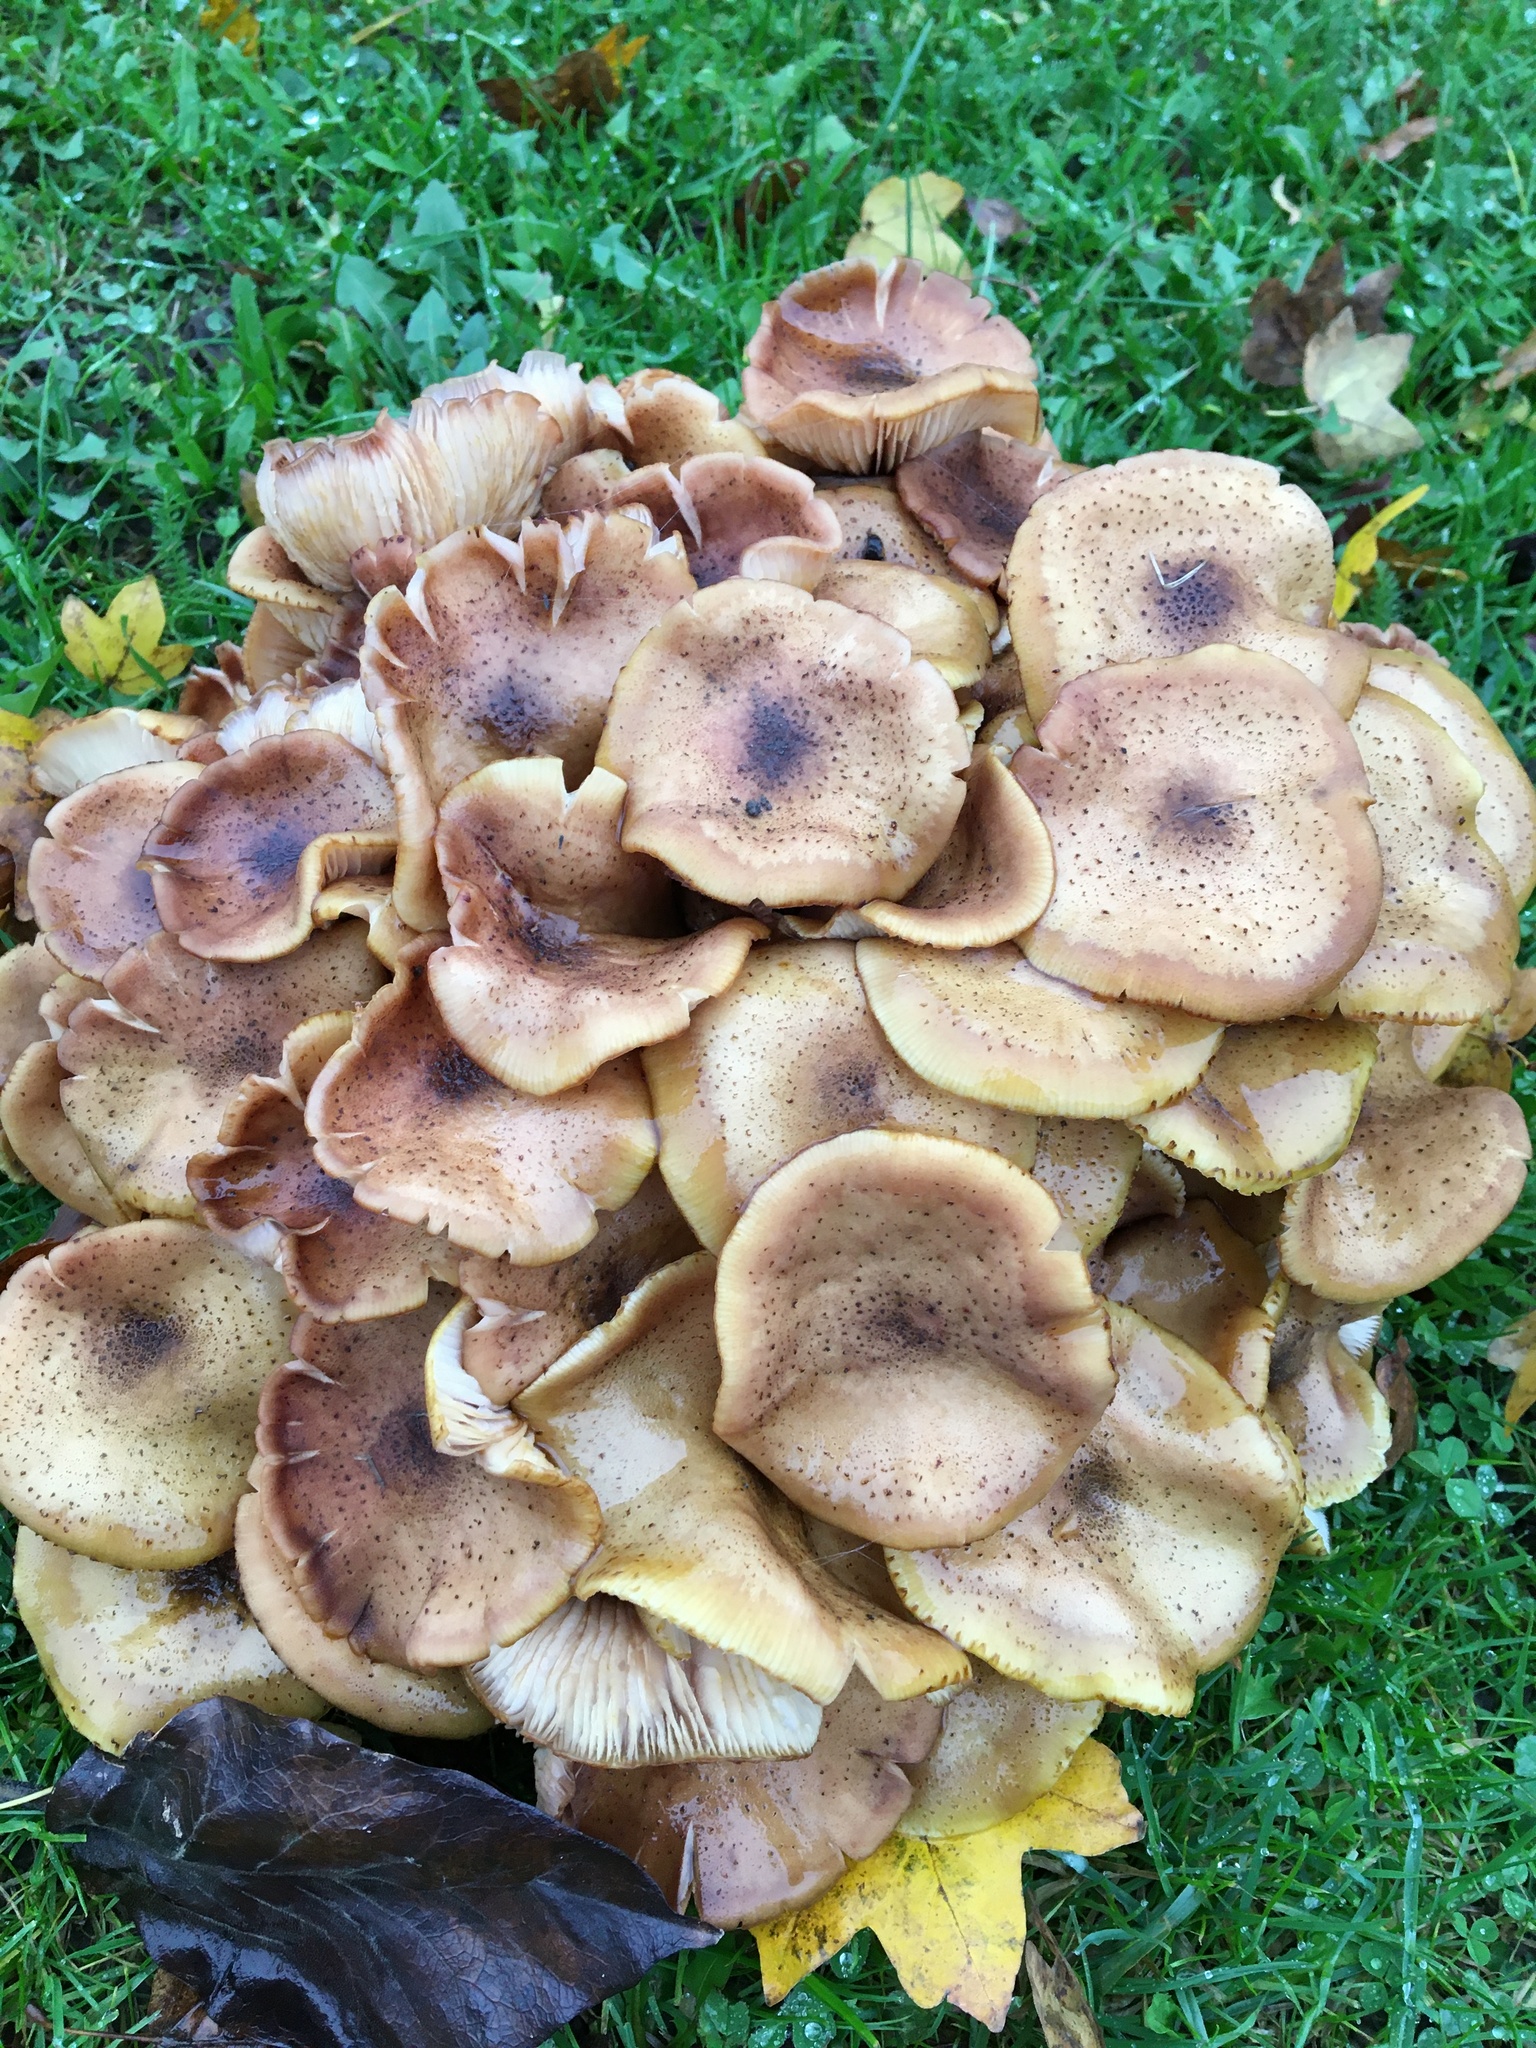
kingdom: Fungi
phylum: Basidiomycota
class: Agaricomycetes
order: Agaricales
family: Physalacriaceae
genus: Armillaria
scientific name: Armillaria mellea
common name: Honey fungus
